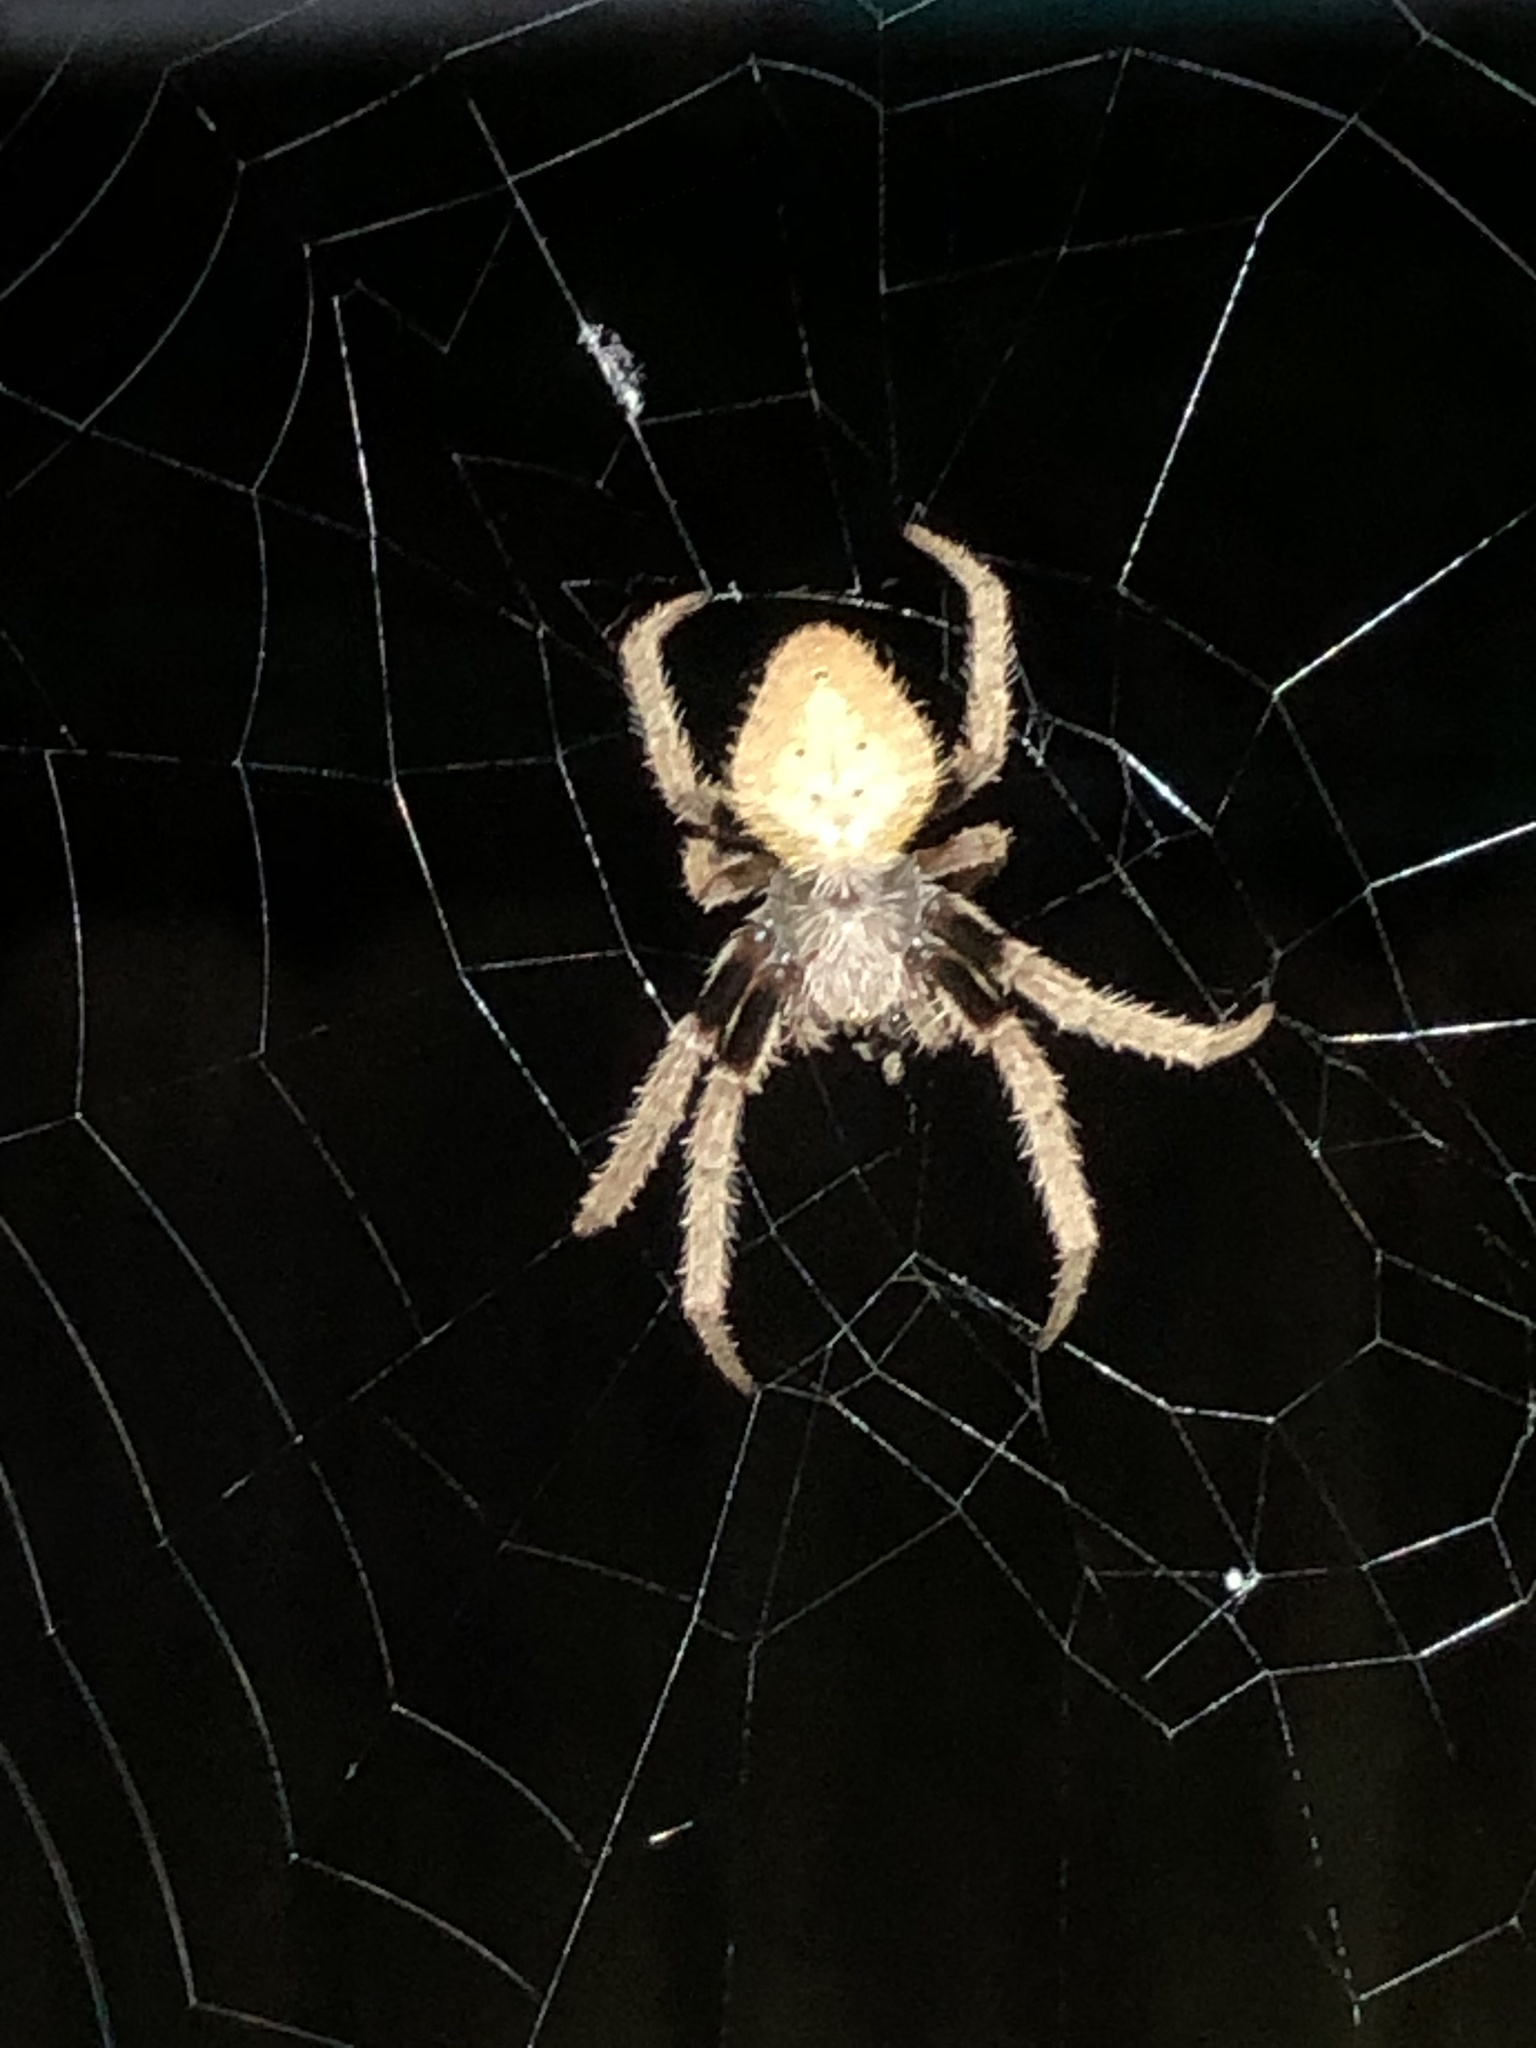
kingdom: Animalia
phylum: Arthropoda
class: Arachnida
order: Araneae
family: Araneidae
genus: Eriophora
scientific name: Eriophora ravilla
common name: Orb weavers
